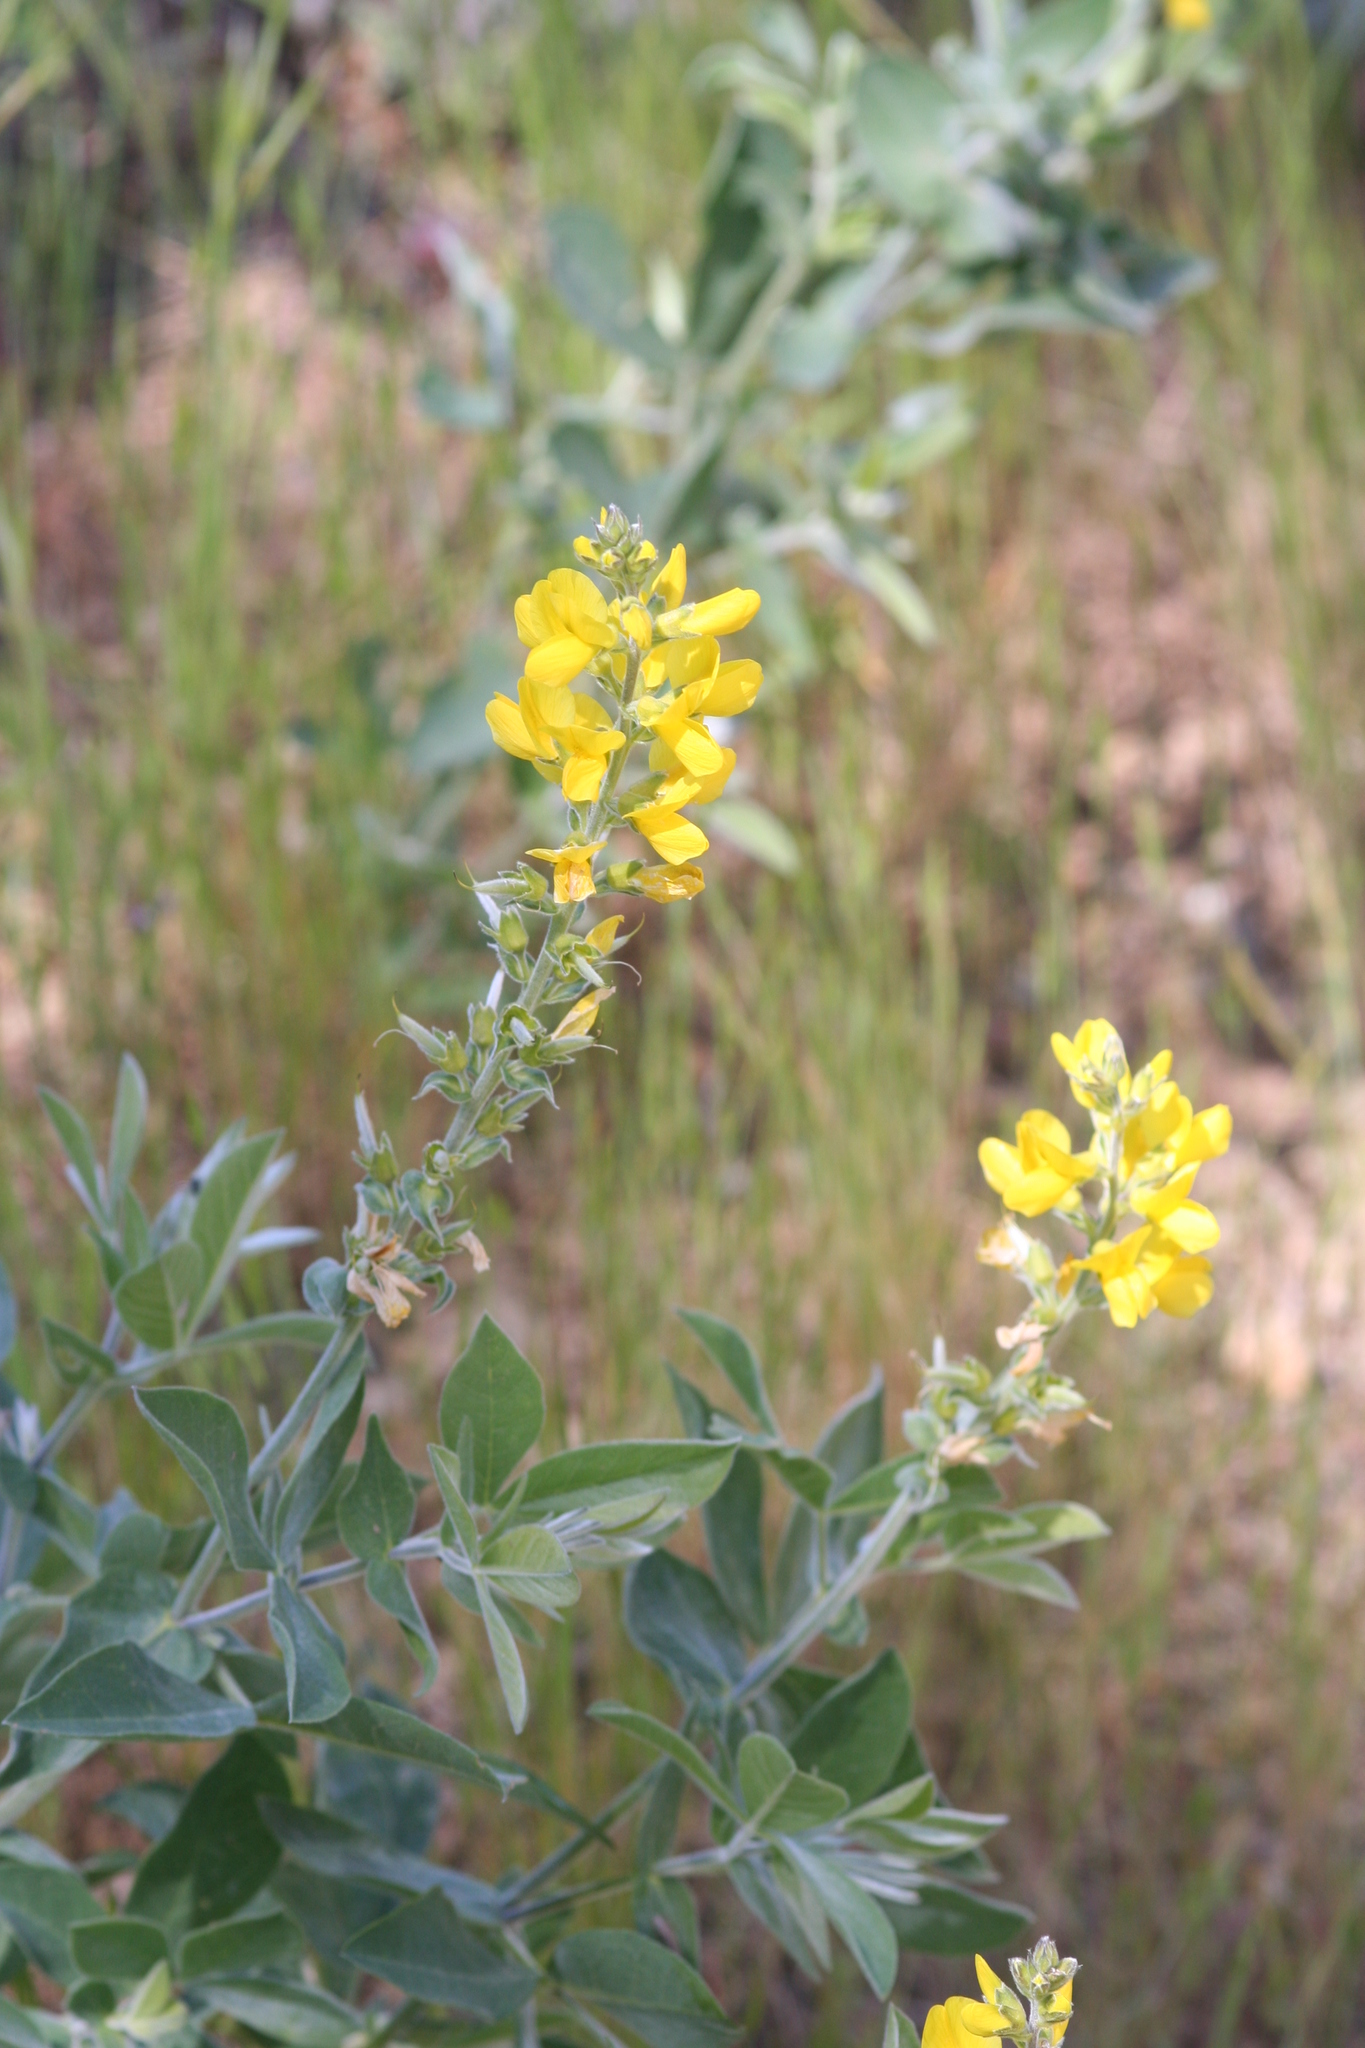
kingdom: Plantae
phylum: Tracheophyta
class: Magnoliopsida
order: Fabales
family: Fabaceae
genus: Thermopsis
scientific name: Thermopsis californica
